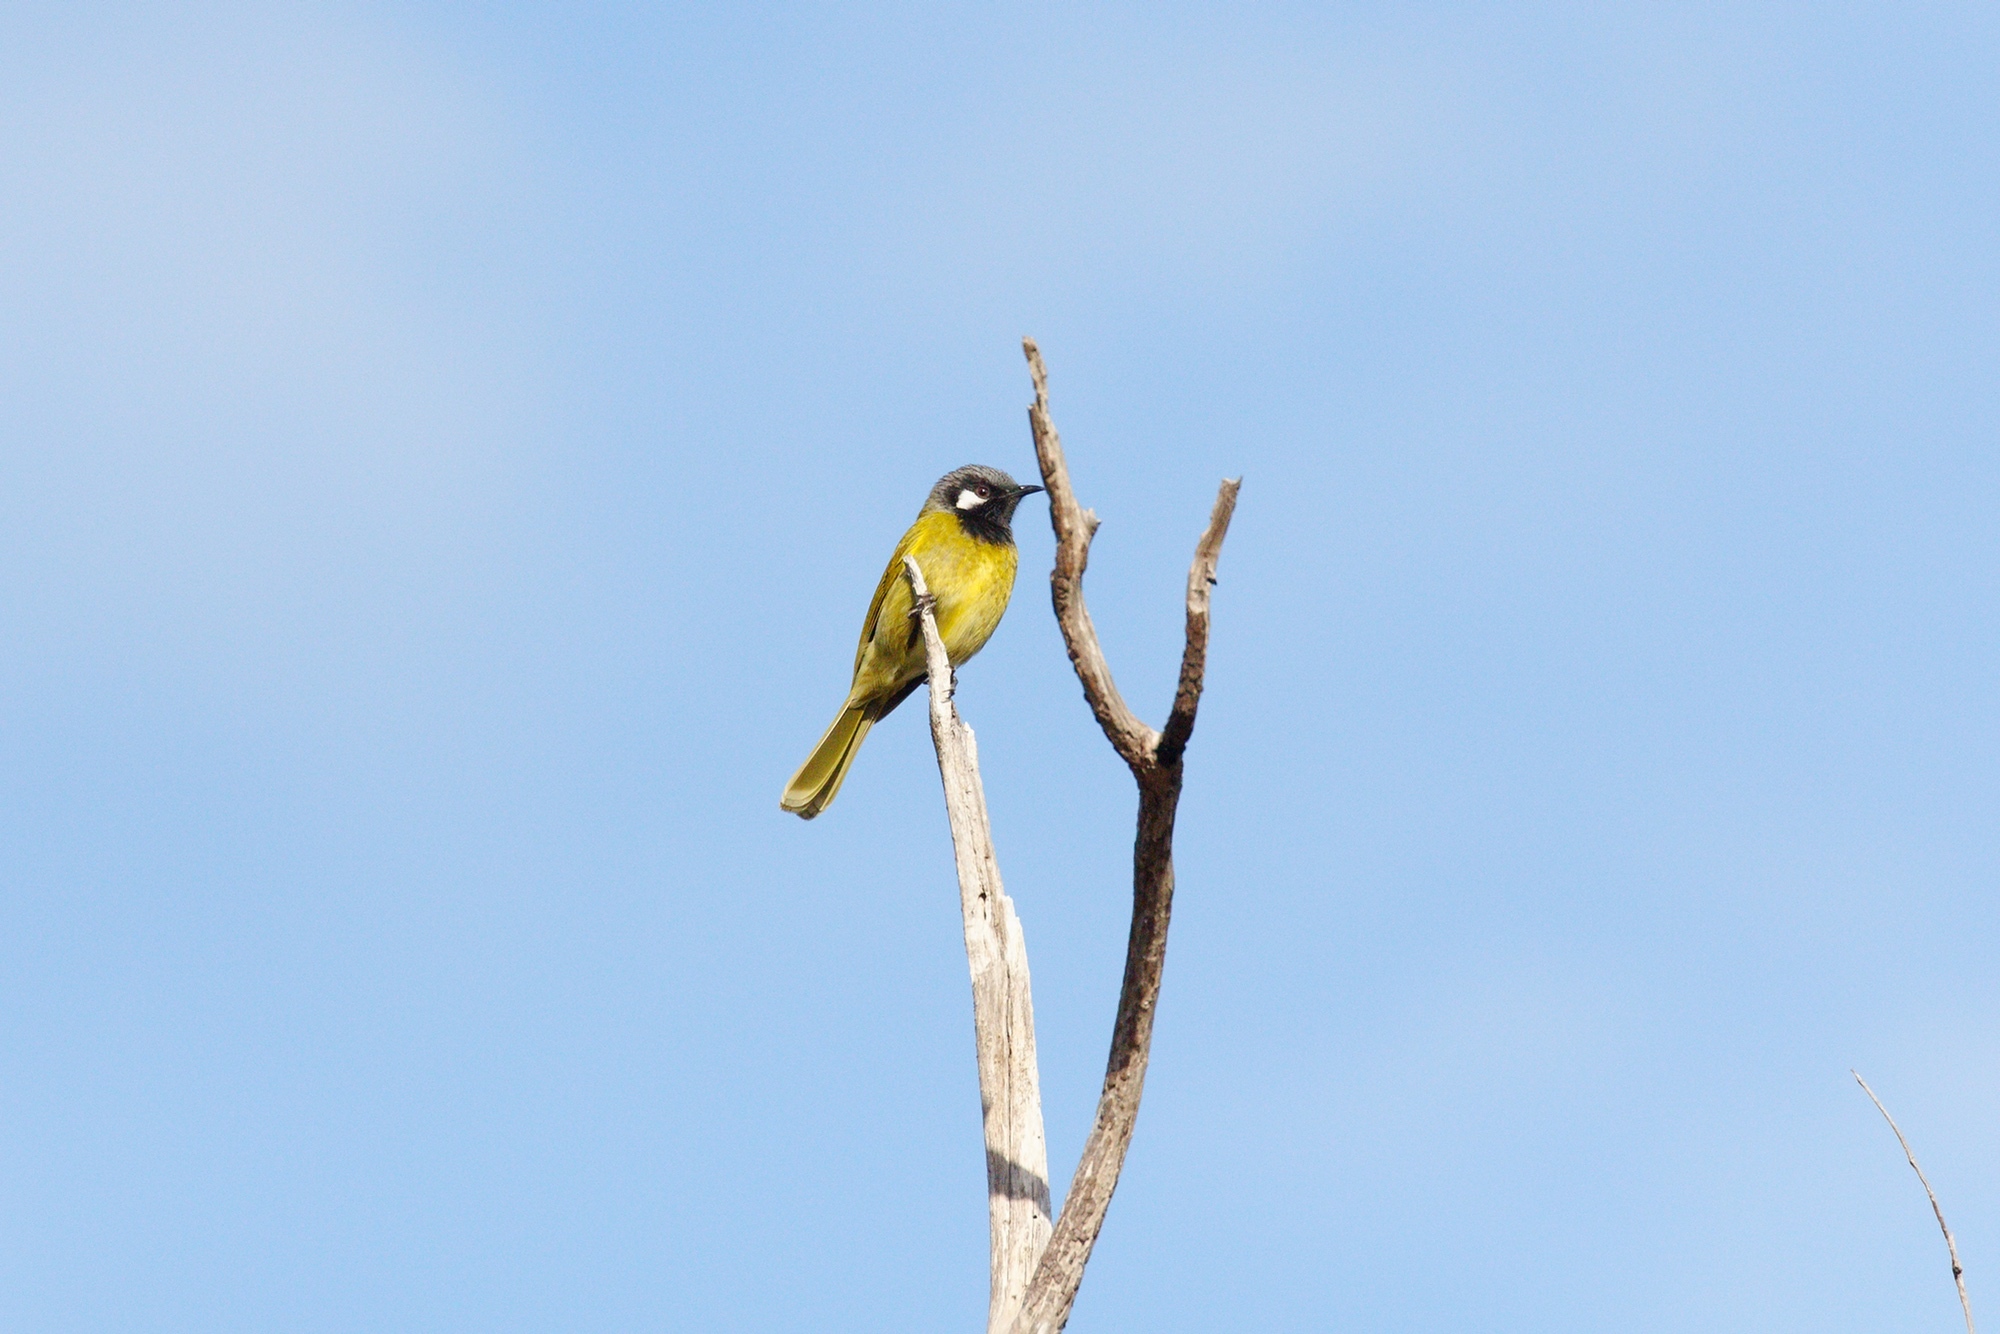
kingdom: Animalia
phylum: Chordata
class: Aves
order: Passeriformes
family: Meliphagidae
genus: Nesoptilotis
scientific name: Nesoptilotis leucotis
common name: White-eared honeyeater
